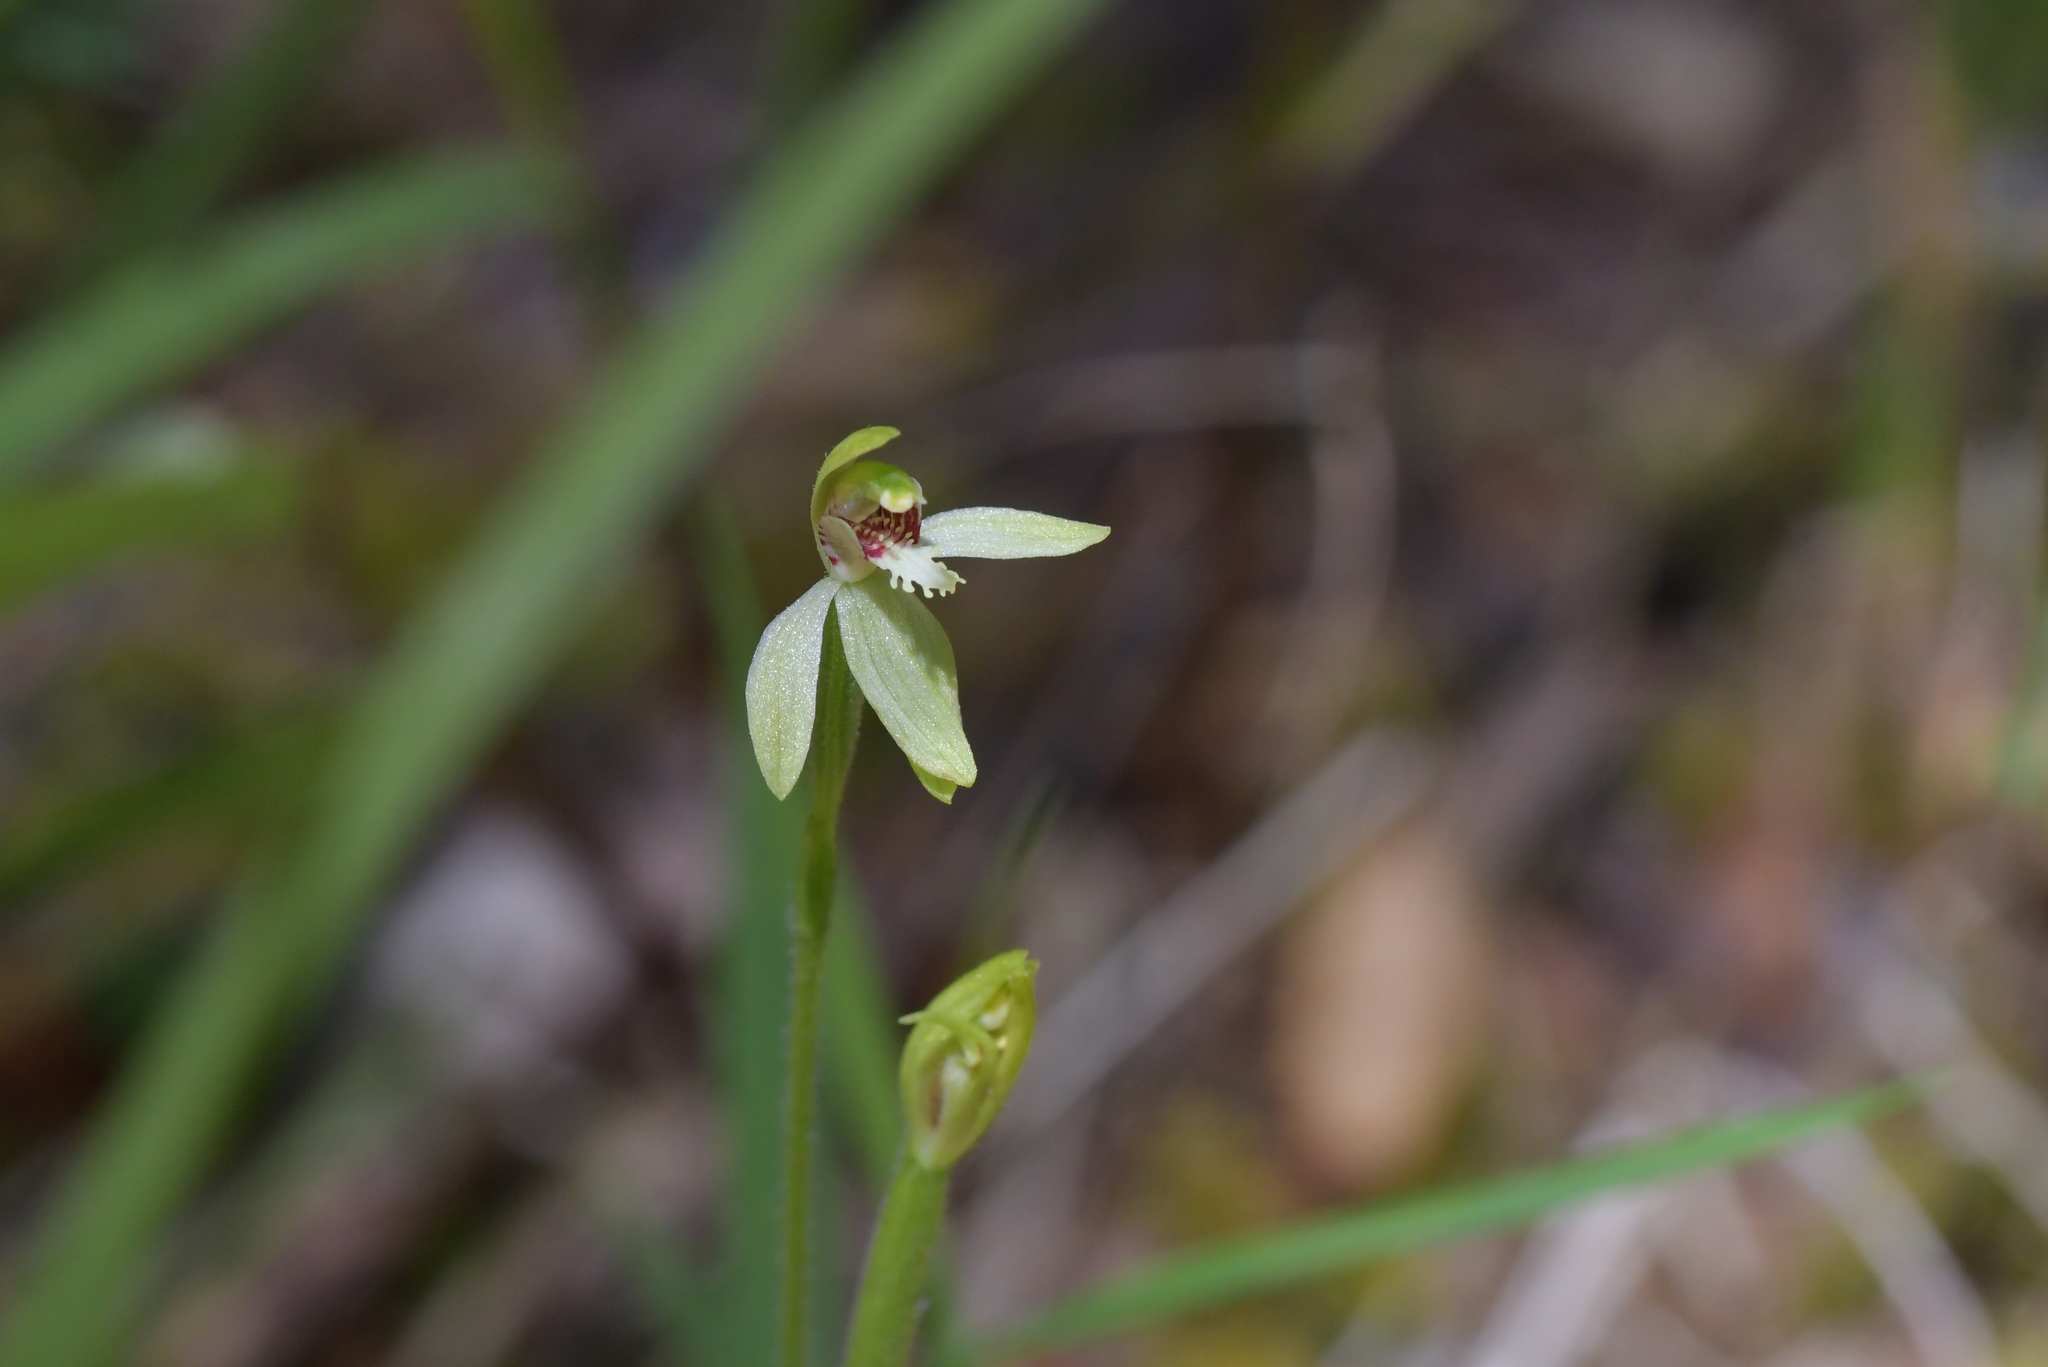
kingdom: Plantae
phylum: Tracheophyta
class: Liliopsida
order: Asparagales
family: Orchidaceae
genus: Caladenia
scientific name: Caladenia chlorostyla
